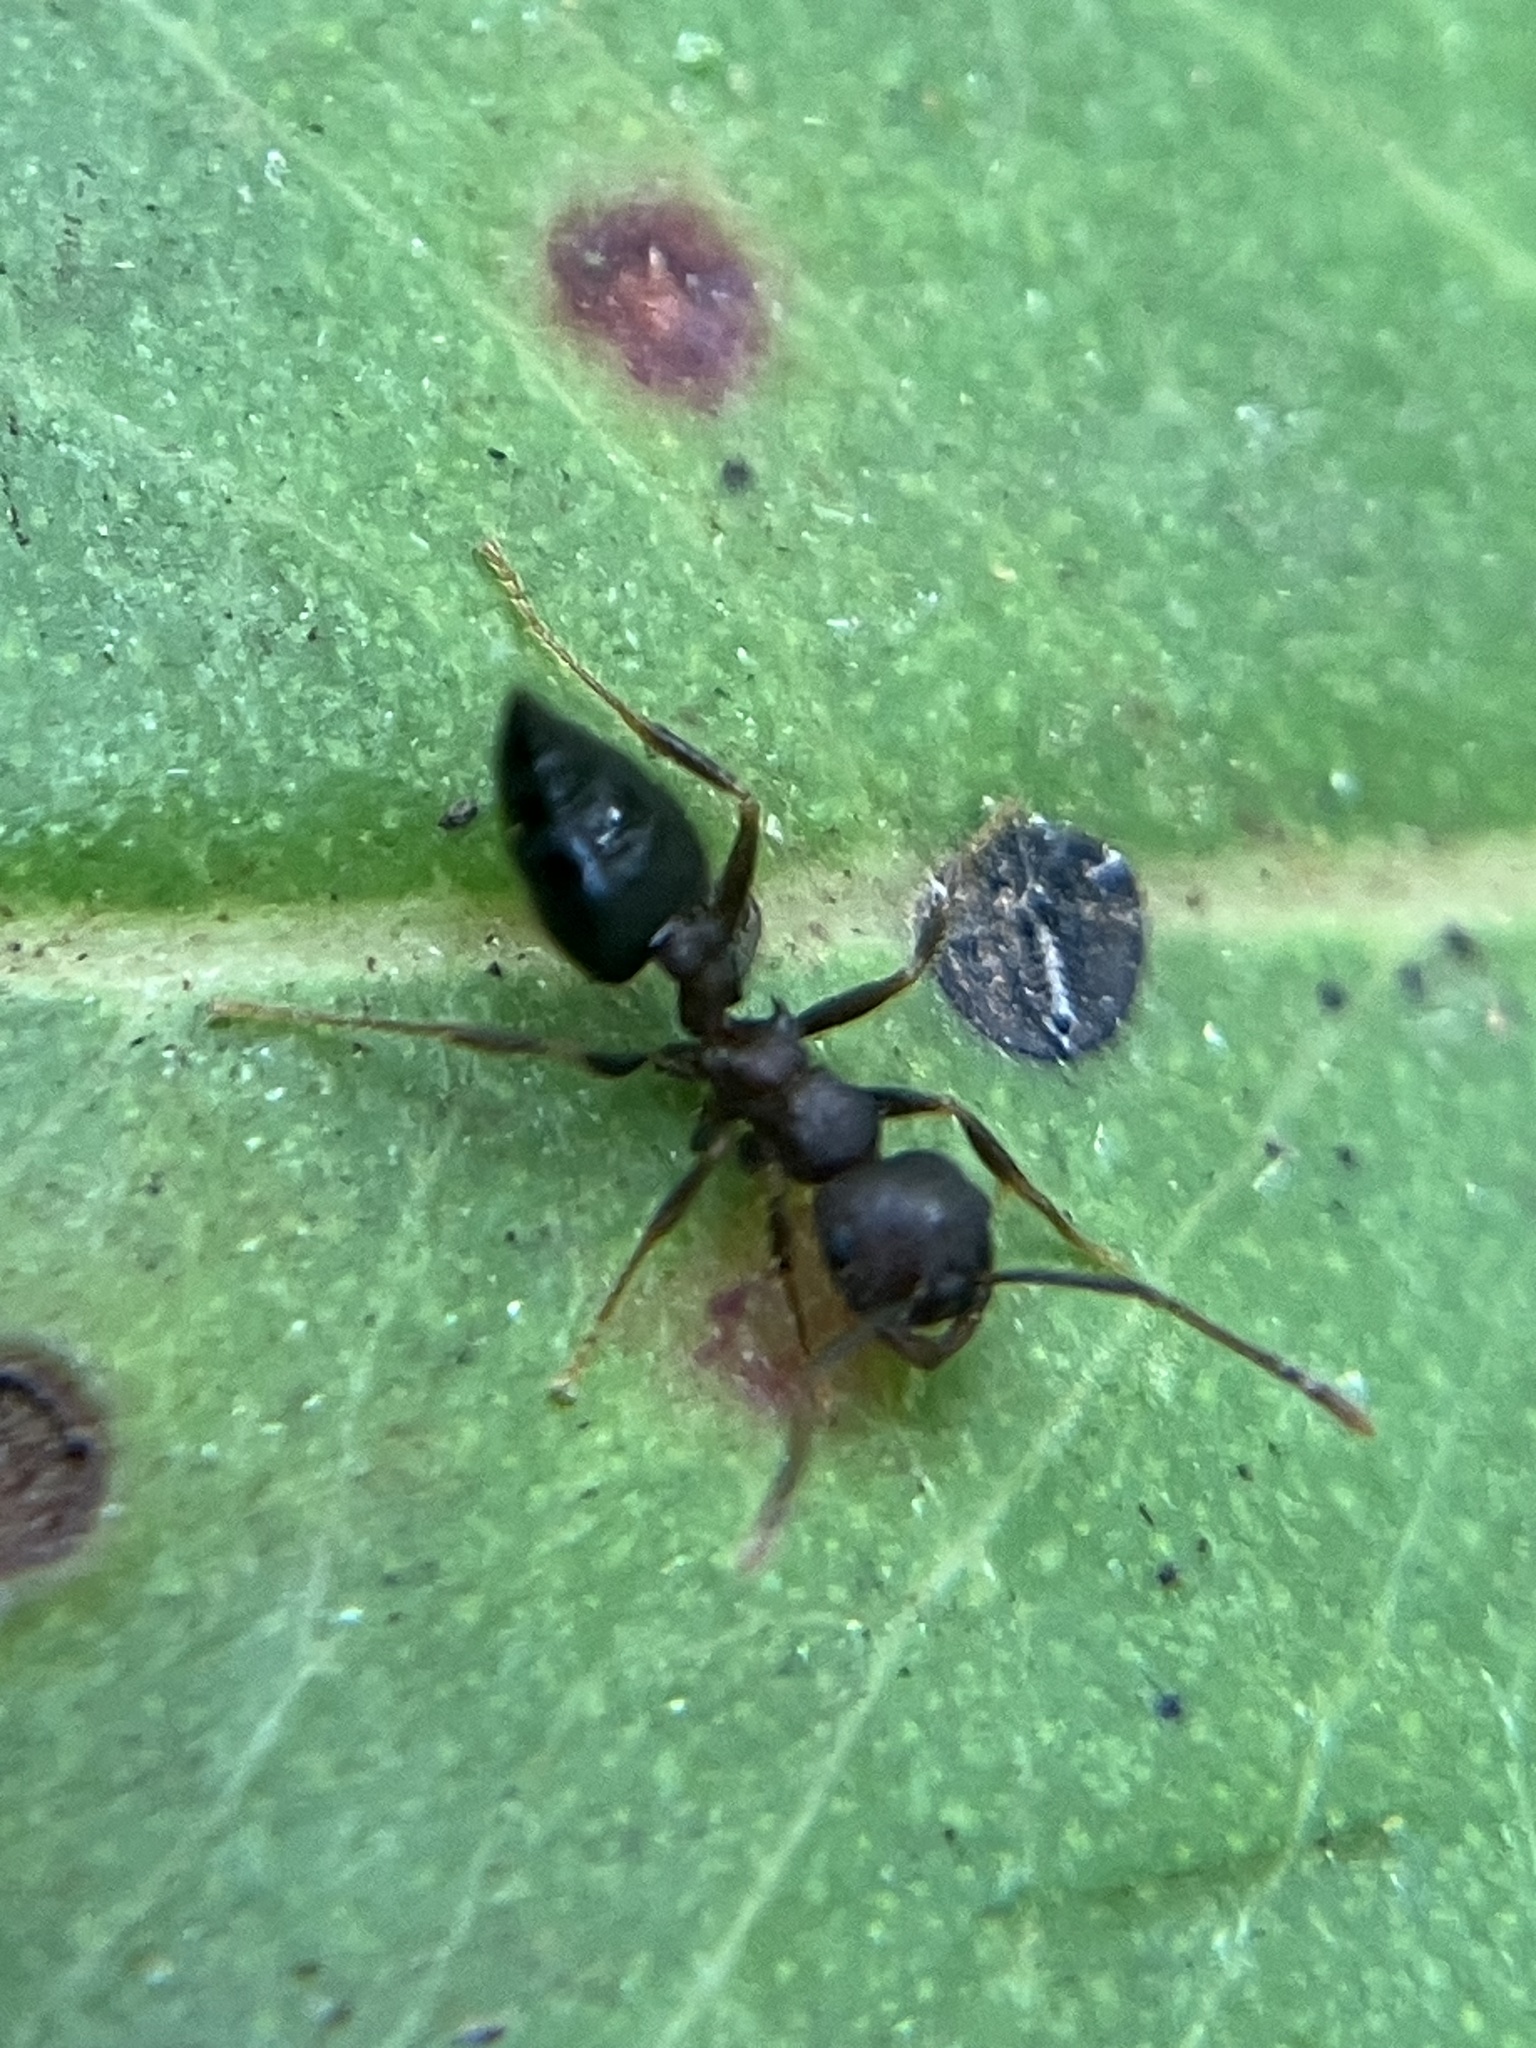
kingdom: Animalia
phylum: Arthropoda
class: Insecta
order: Hymenoptera
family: Formicidae
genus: Crematogaster
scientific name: Crematogaster rothneyi
